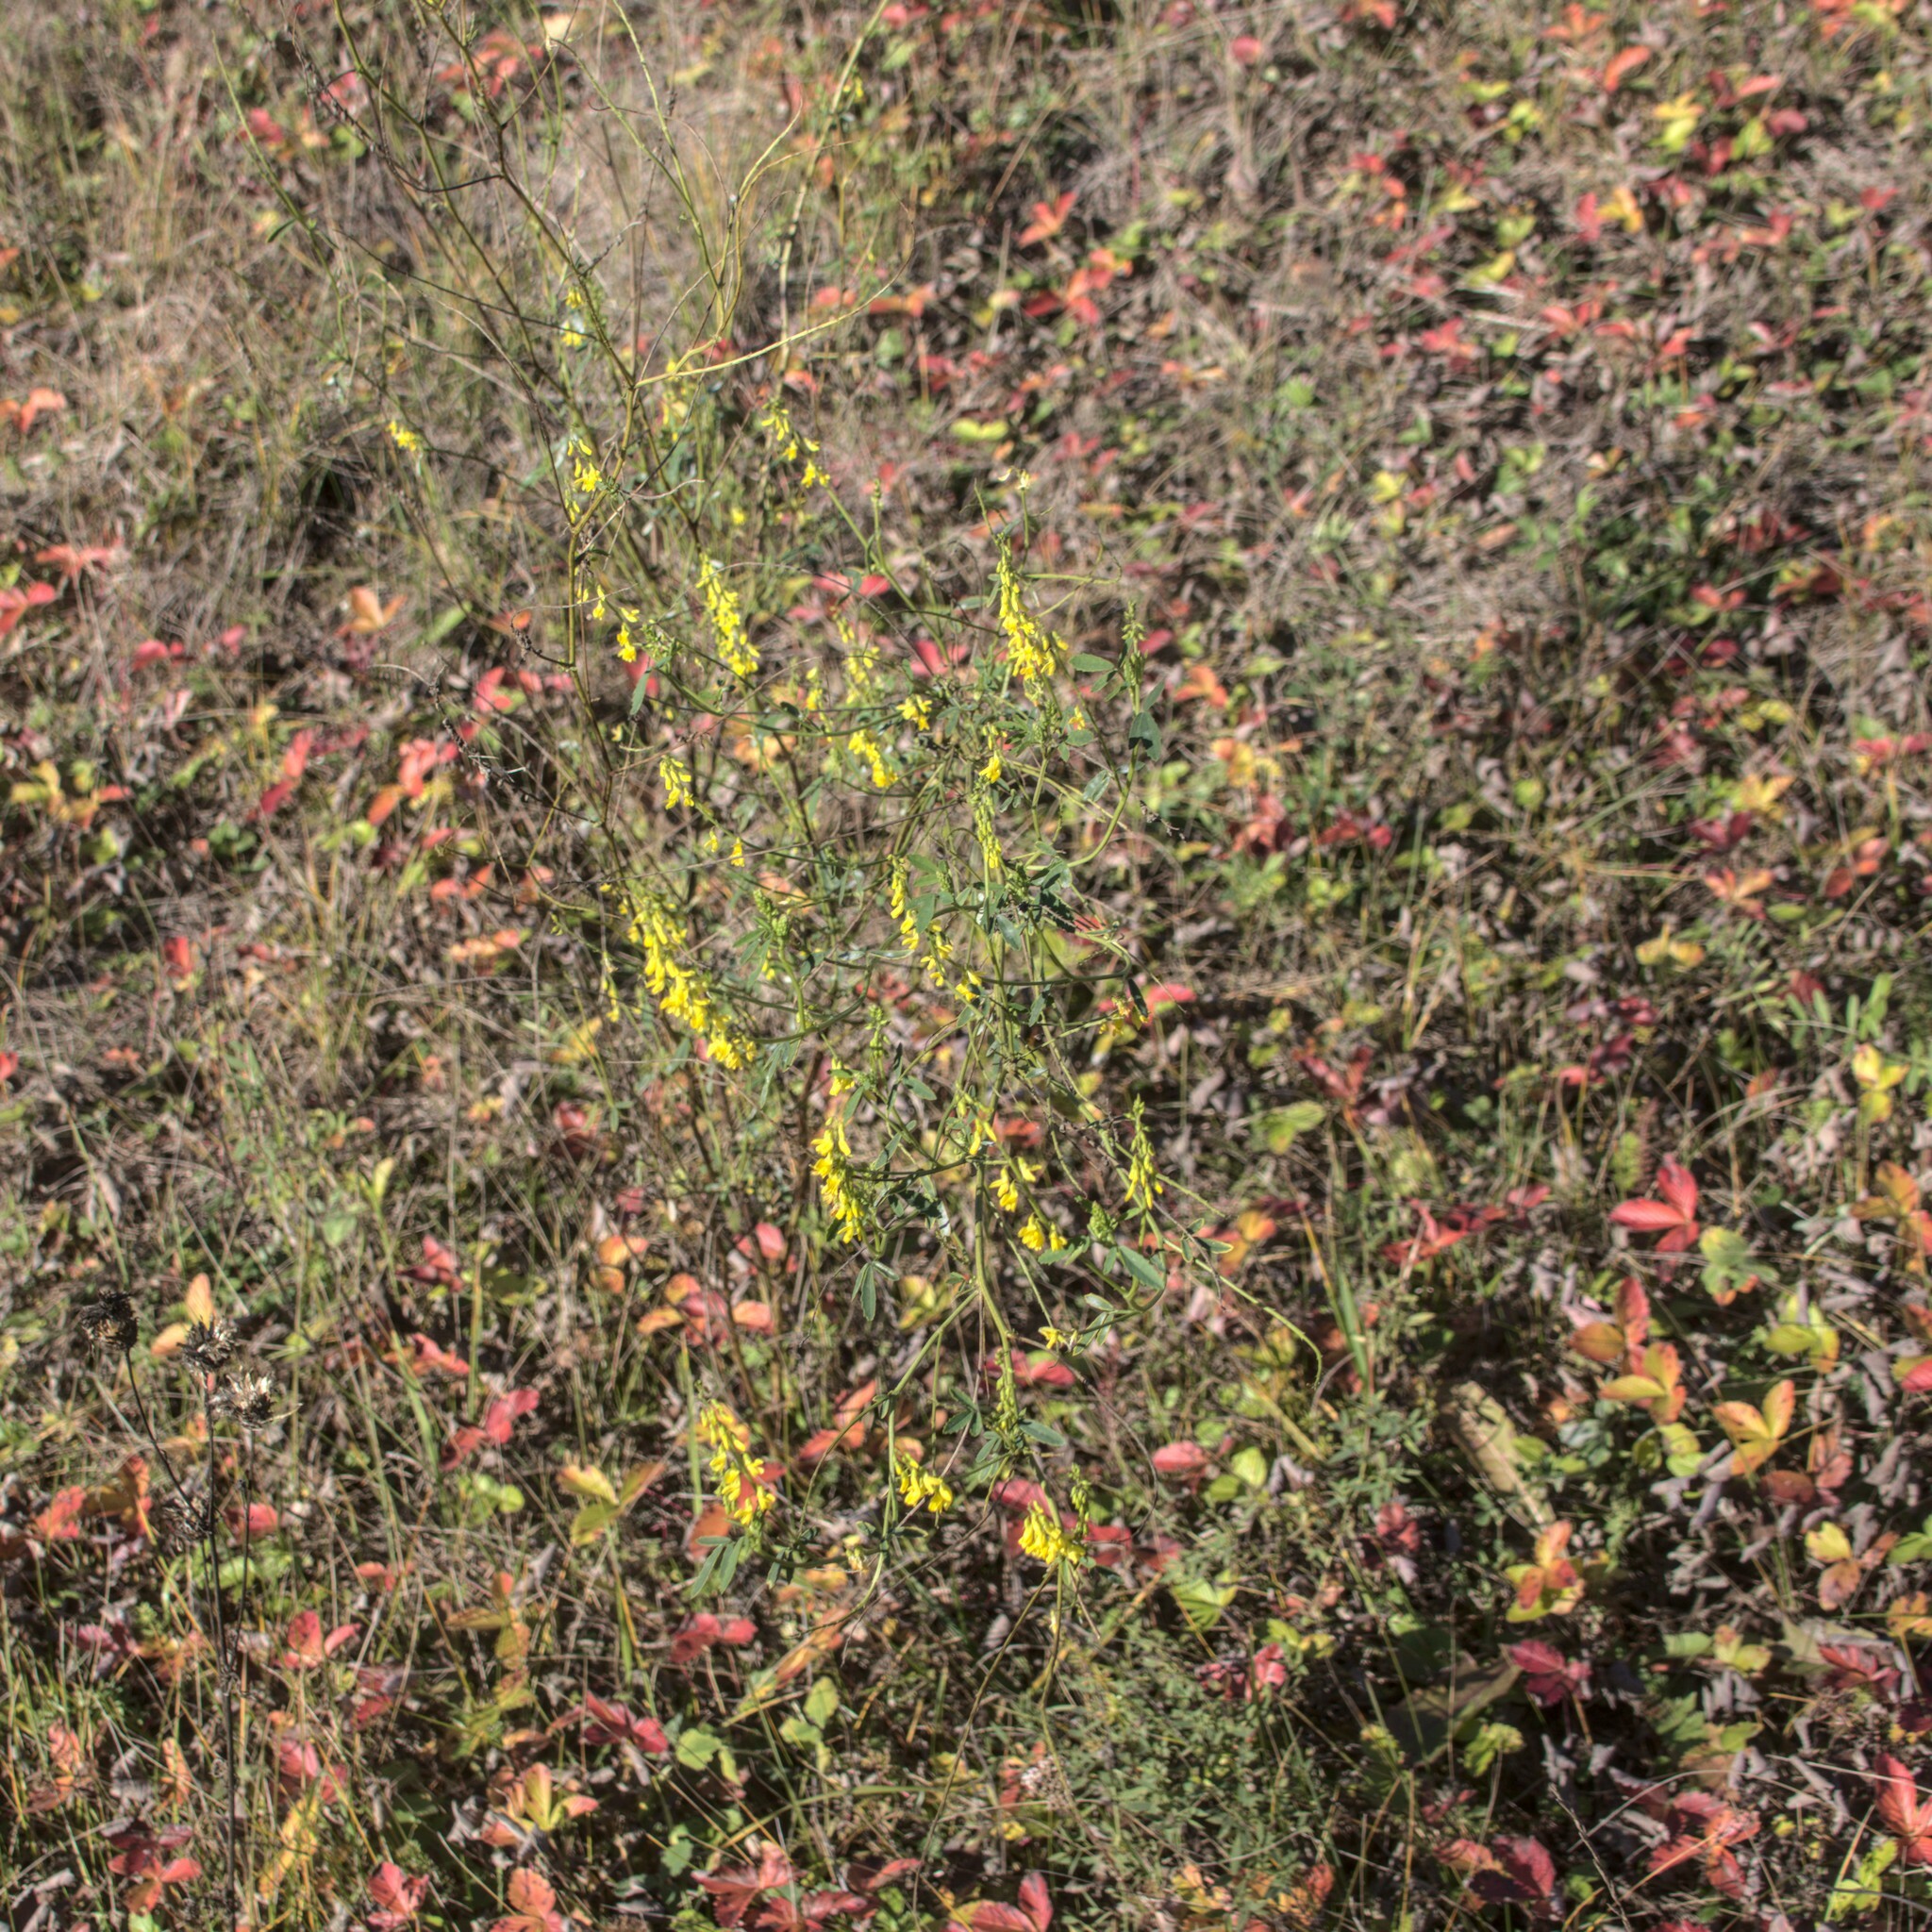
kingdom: Plantae
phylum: Tracheophyta
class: Magnoliopsida
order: Fabales
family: Fabaceae
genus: Melilotus
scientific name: Melilotus officinalis
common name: Sweetclover
